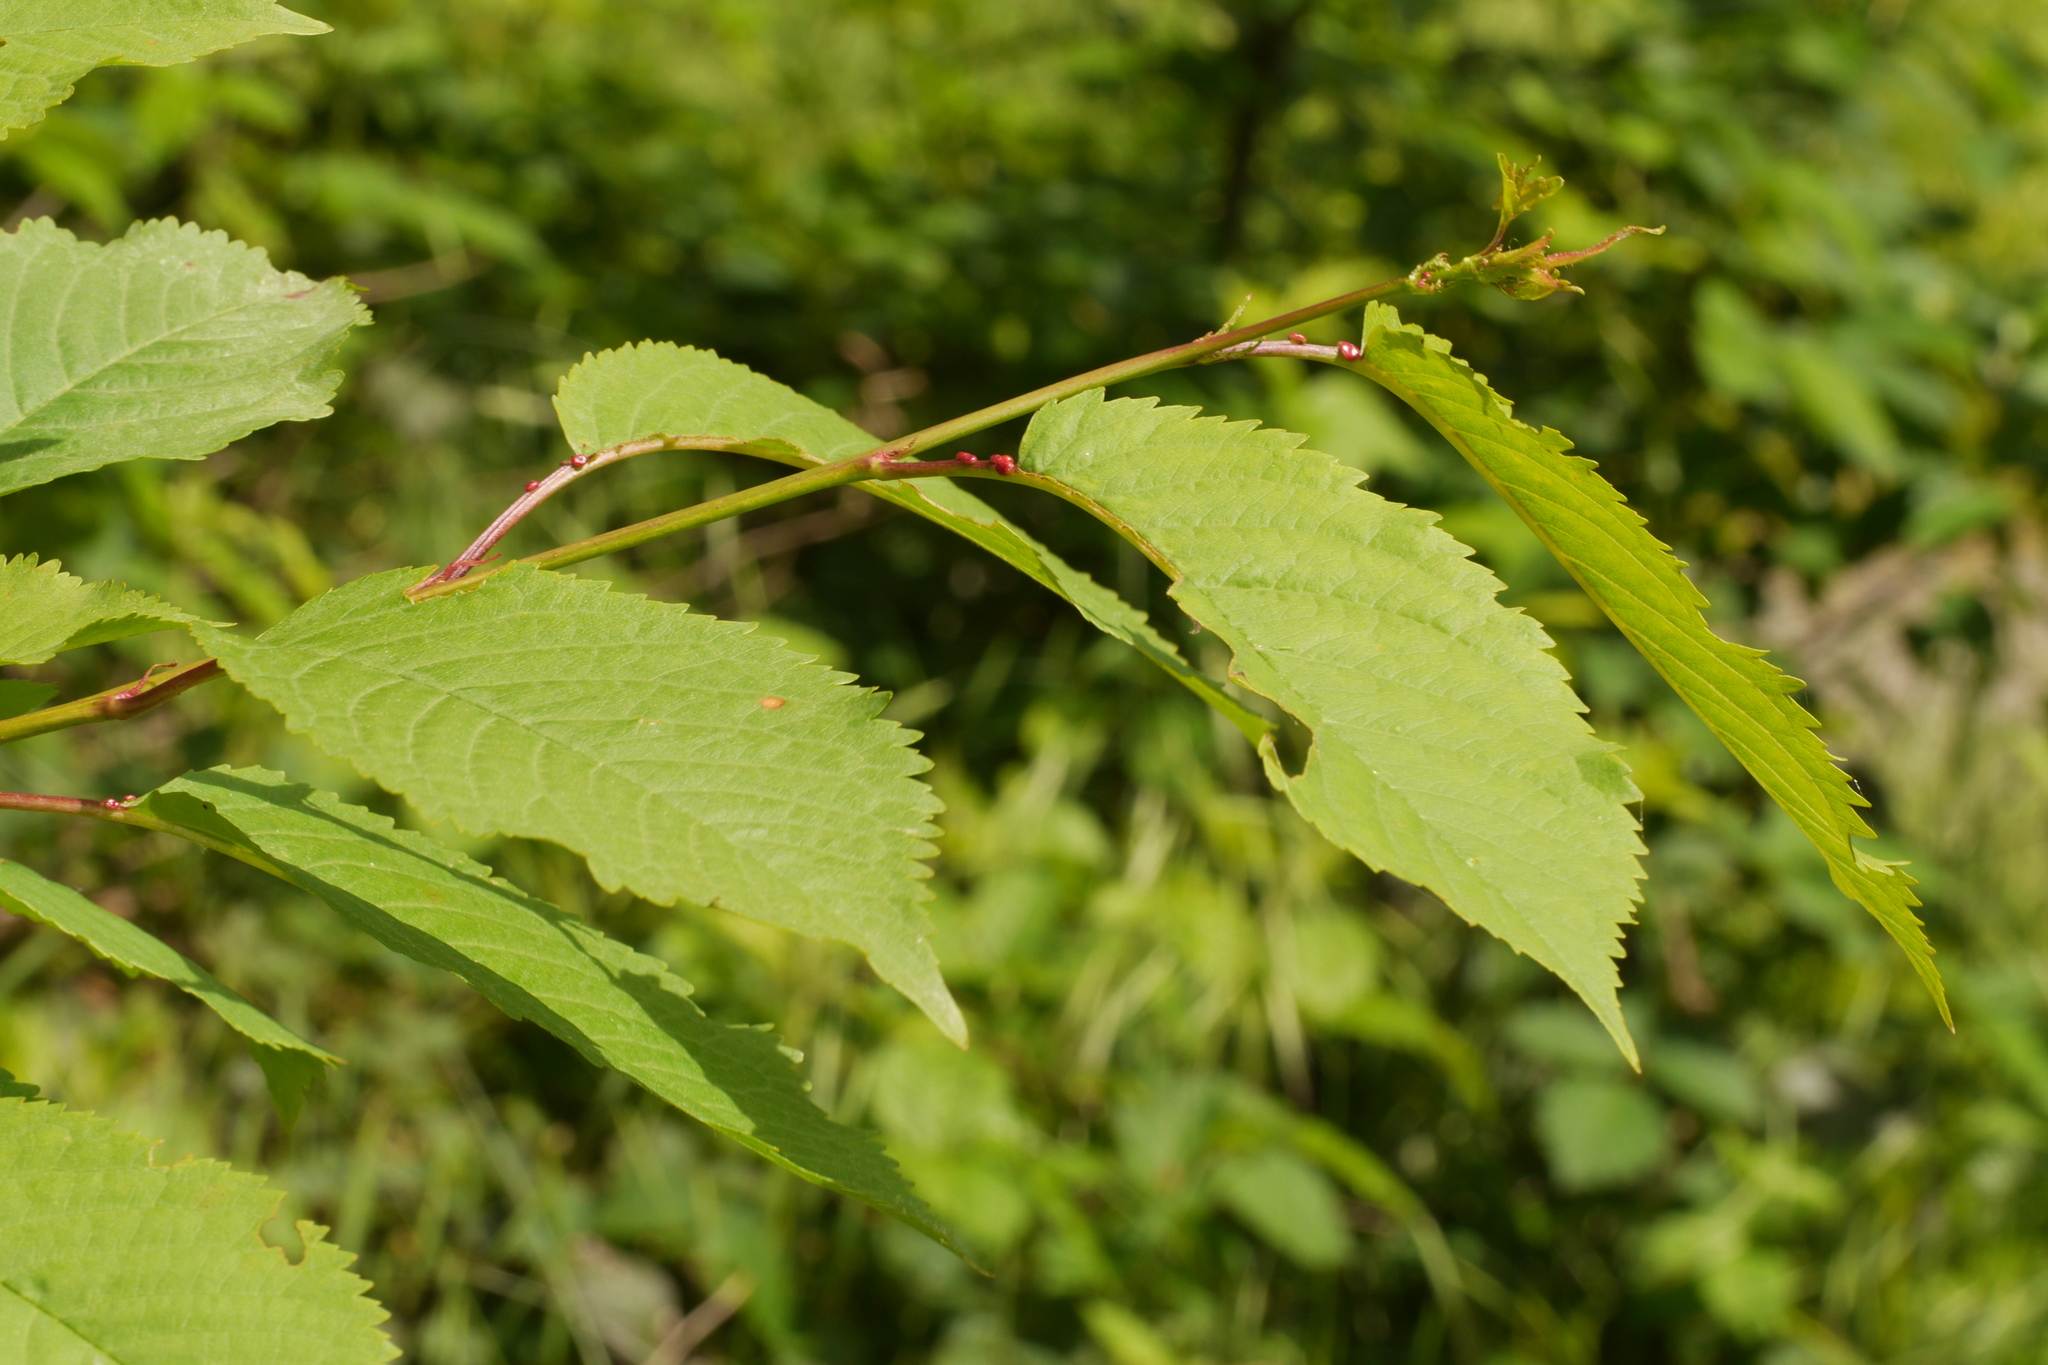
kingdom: Plantae
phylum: Tracheophyta
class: Magnoliopsida
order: Rosales
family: Rosaceae
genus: Prunus
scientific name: Prunus avium
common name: Sweet cherry
